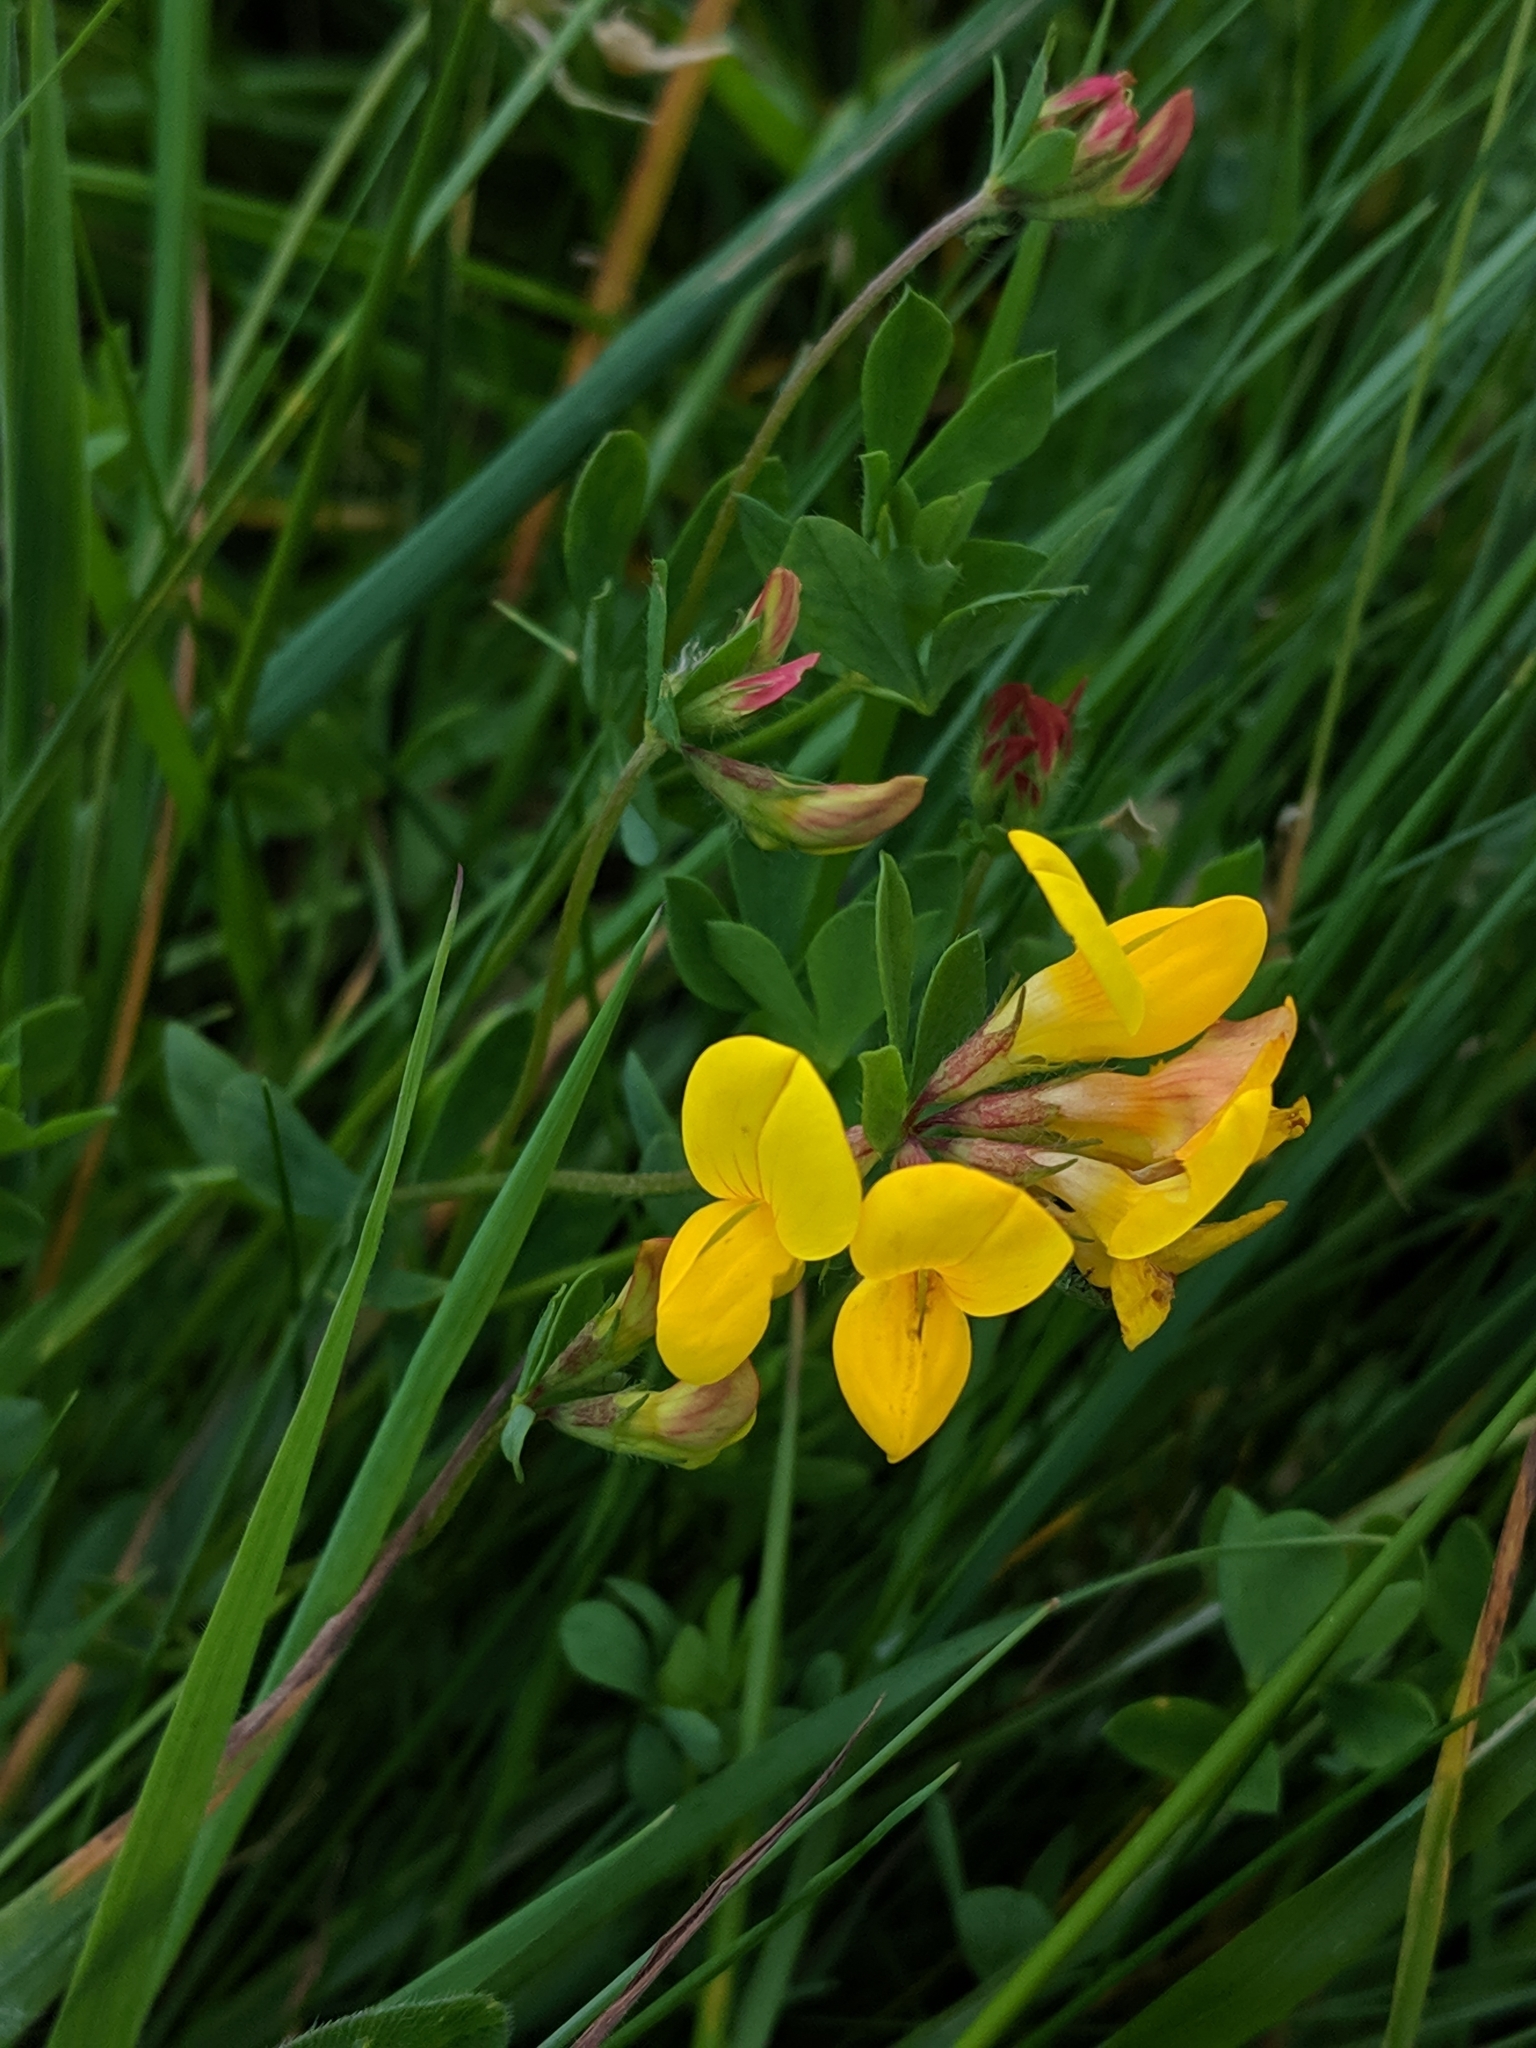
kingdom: Plantae
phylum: Tracheophyta
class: Magnoliopsida
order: Fabales
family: Fabaceae
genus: Lotus
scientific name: Lotus corniculatus
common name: Common bird's-foot-trefoil
